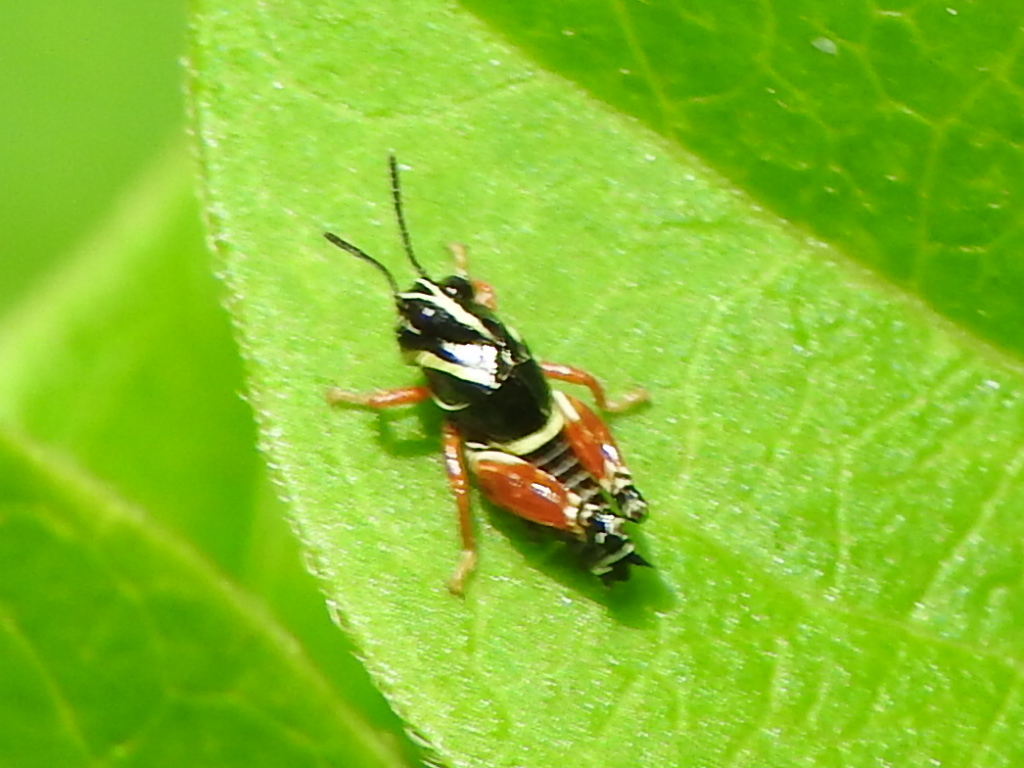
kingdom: Animalia
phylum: Arthropoda
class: Insecta
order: Orthoptera
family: Acrididae
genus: Aidemona
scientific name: Aidemona azteca
